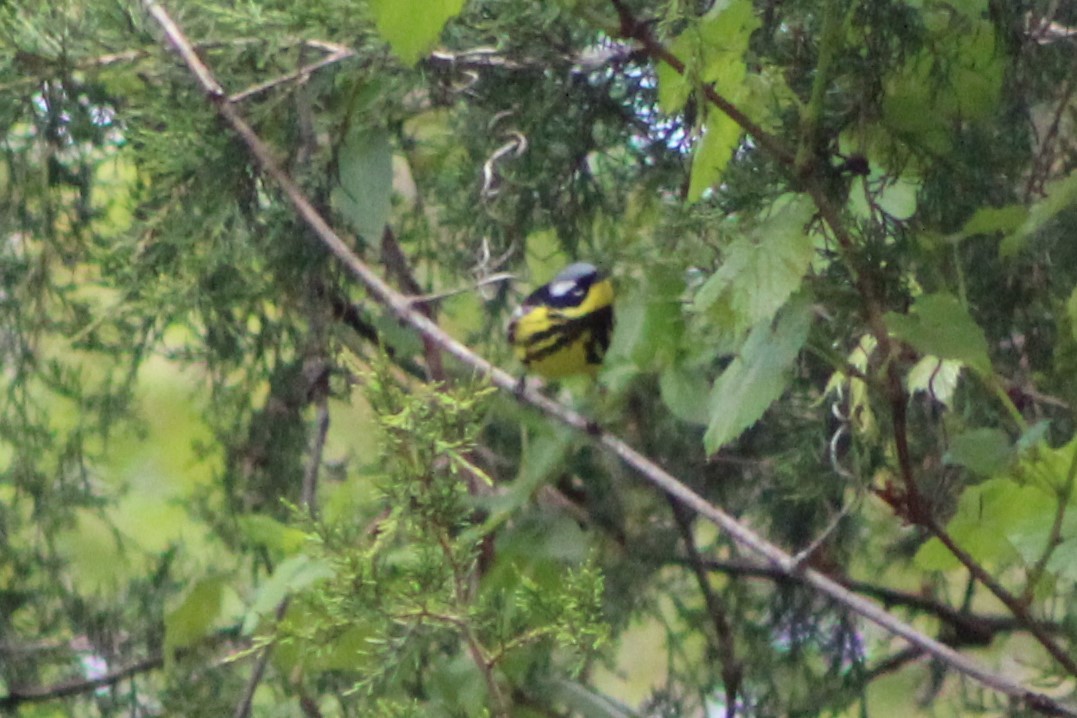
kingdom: Animalia
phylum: Chordata
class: Aves
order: Passeriformes
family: Parulidae
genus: Setophaga
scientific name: Setophaga magnolia
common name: Magnolia warbler
